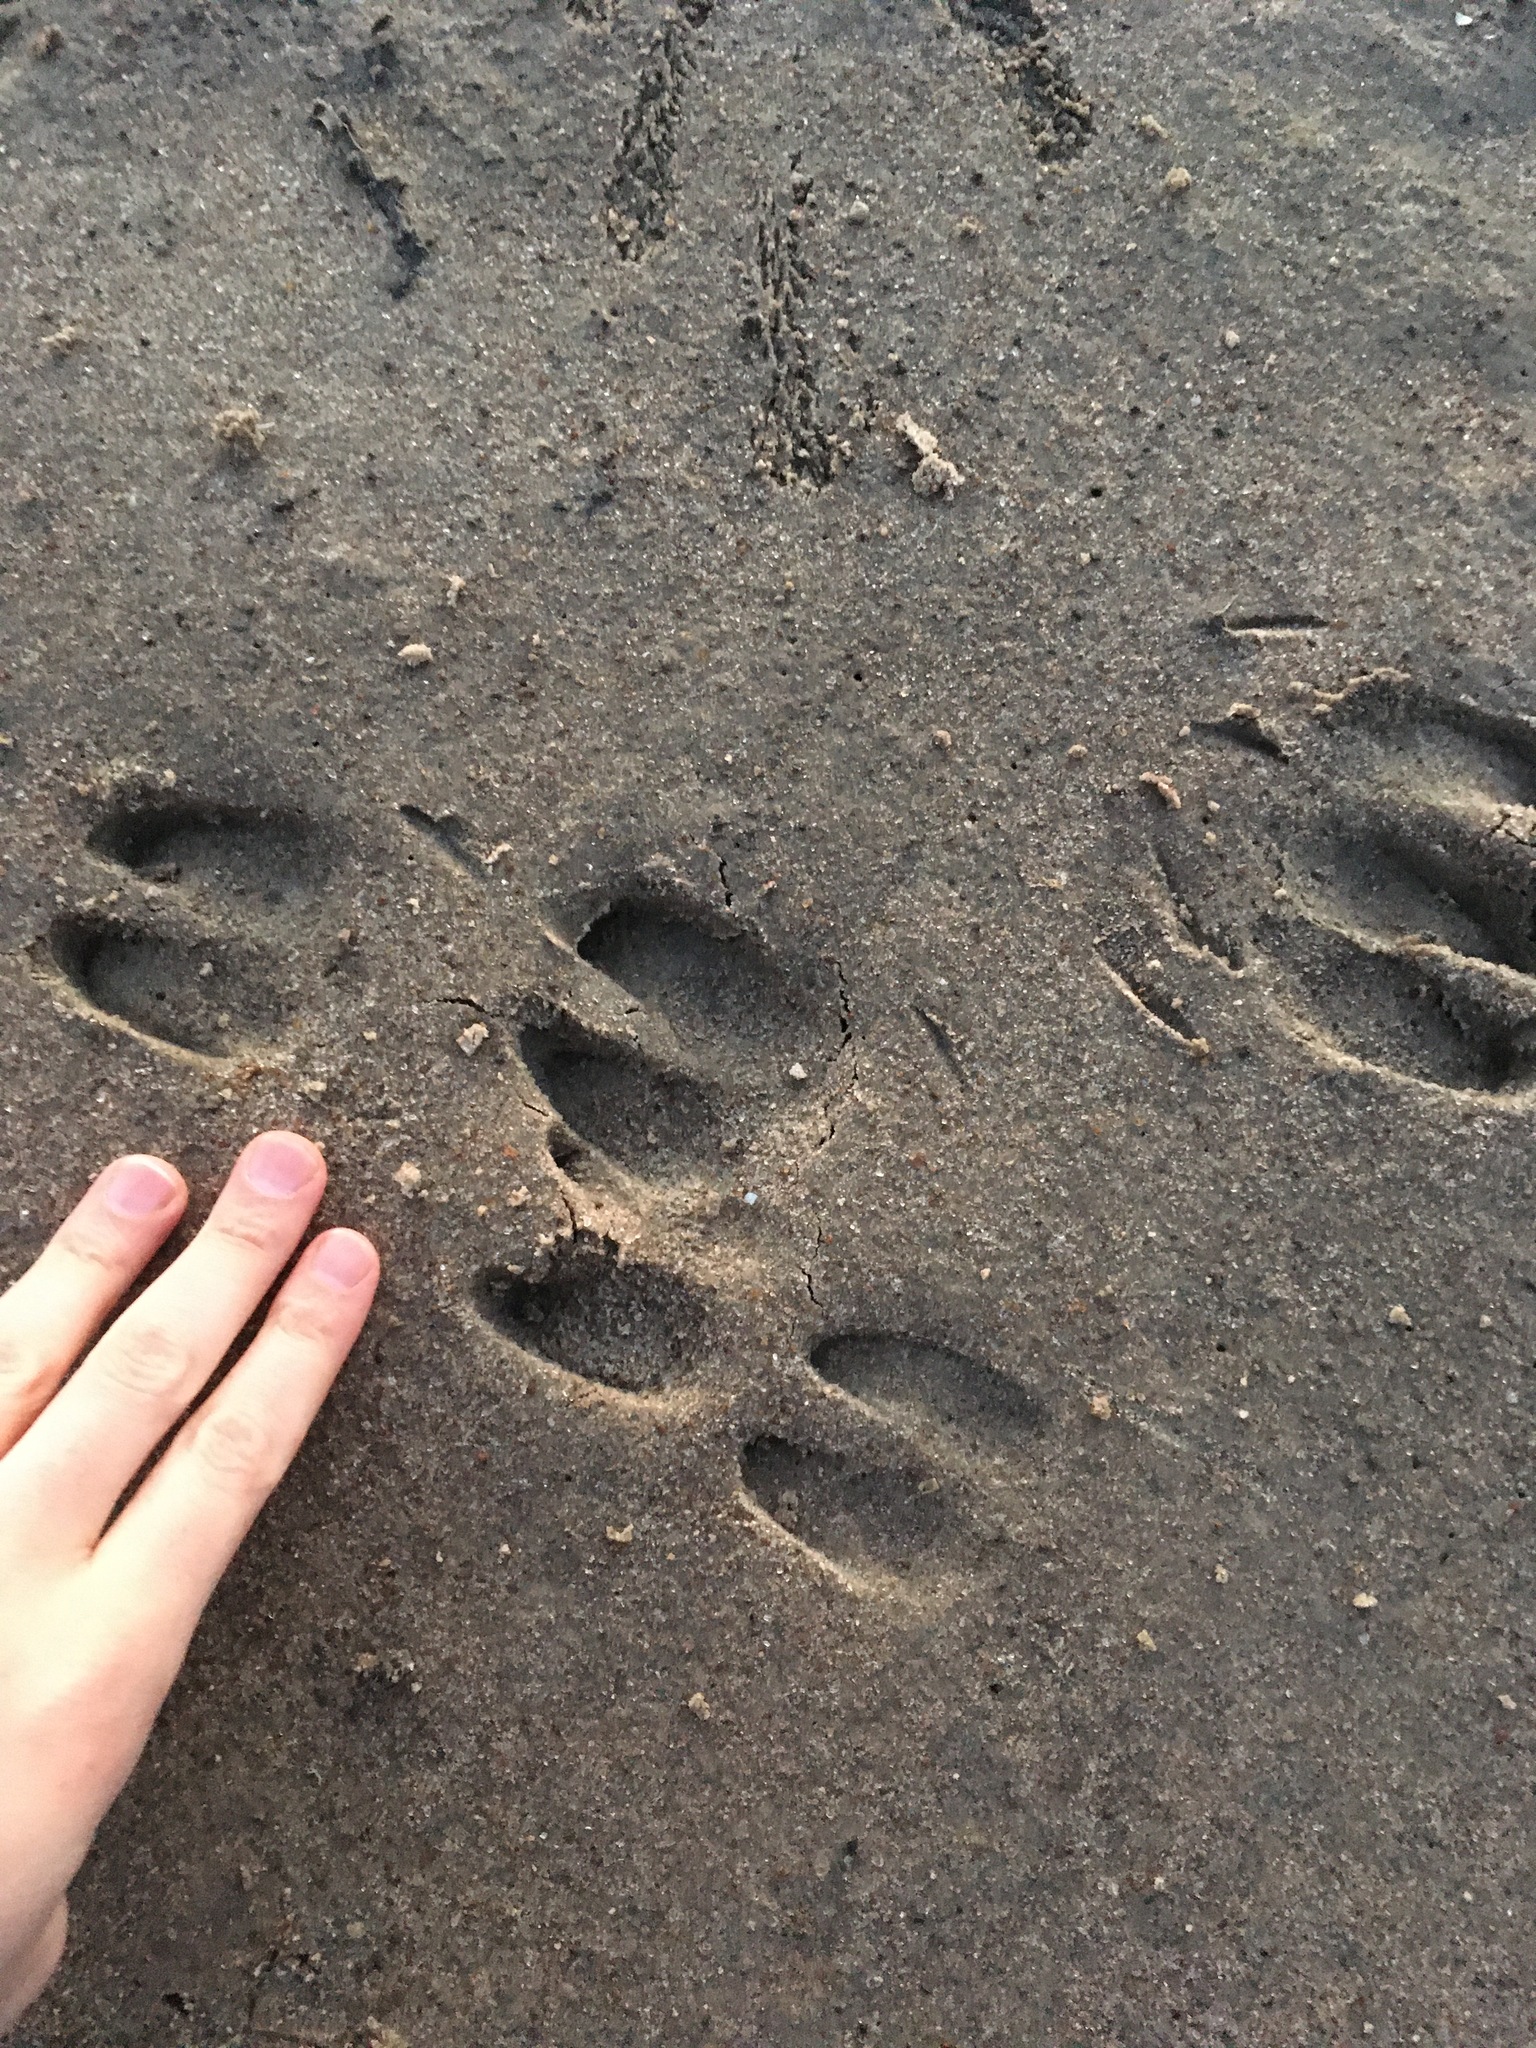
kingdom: Animalia
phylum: Chordata
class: Mammalia
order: Artiodactyla
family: Suidae
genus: Sus
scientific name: Sus scrofa
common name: Wild boar
